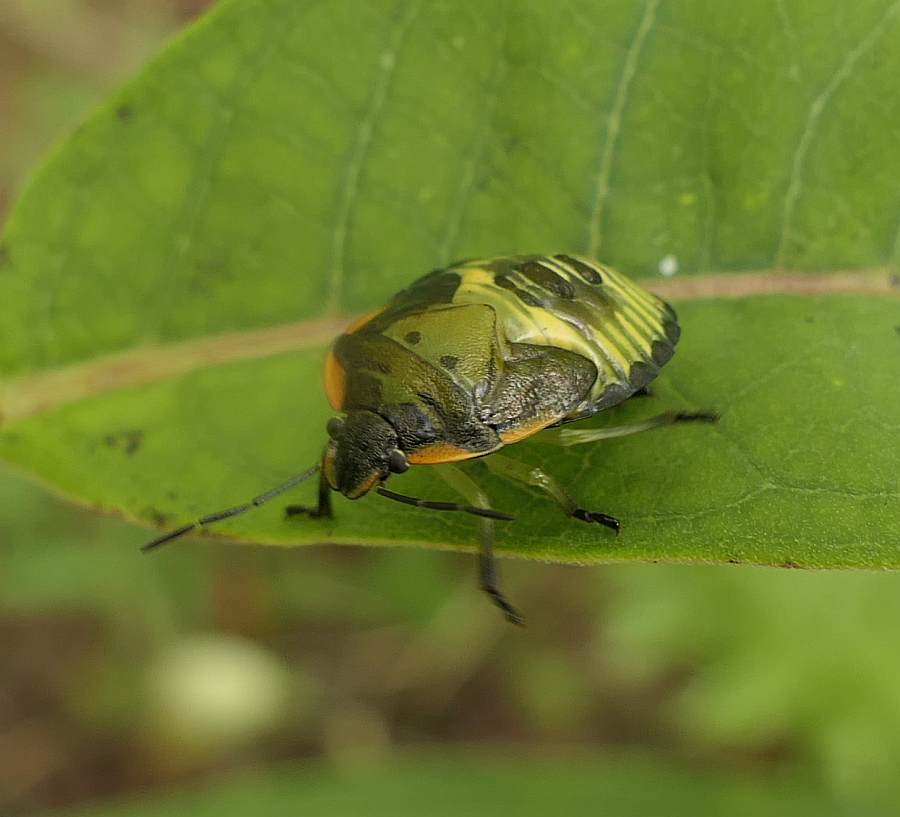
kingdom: Animalia
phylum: Arthropoda
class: Insecta
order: Hemiptera
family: Pentatomidae
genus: Chinavia
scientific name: Chinavia hilaris
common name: Green stink bug
